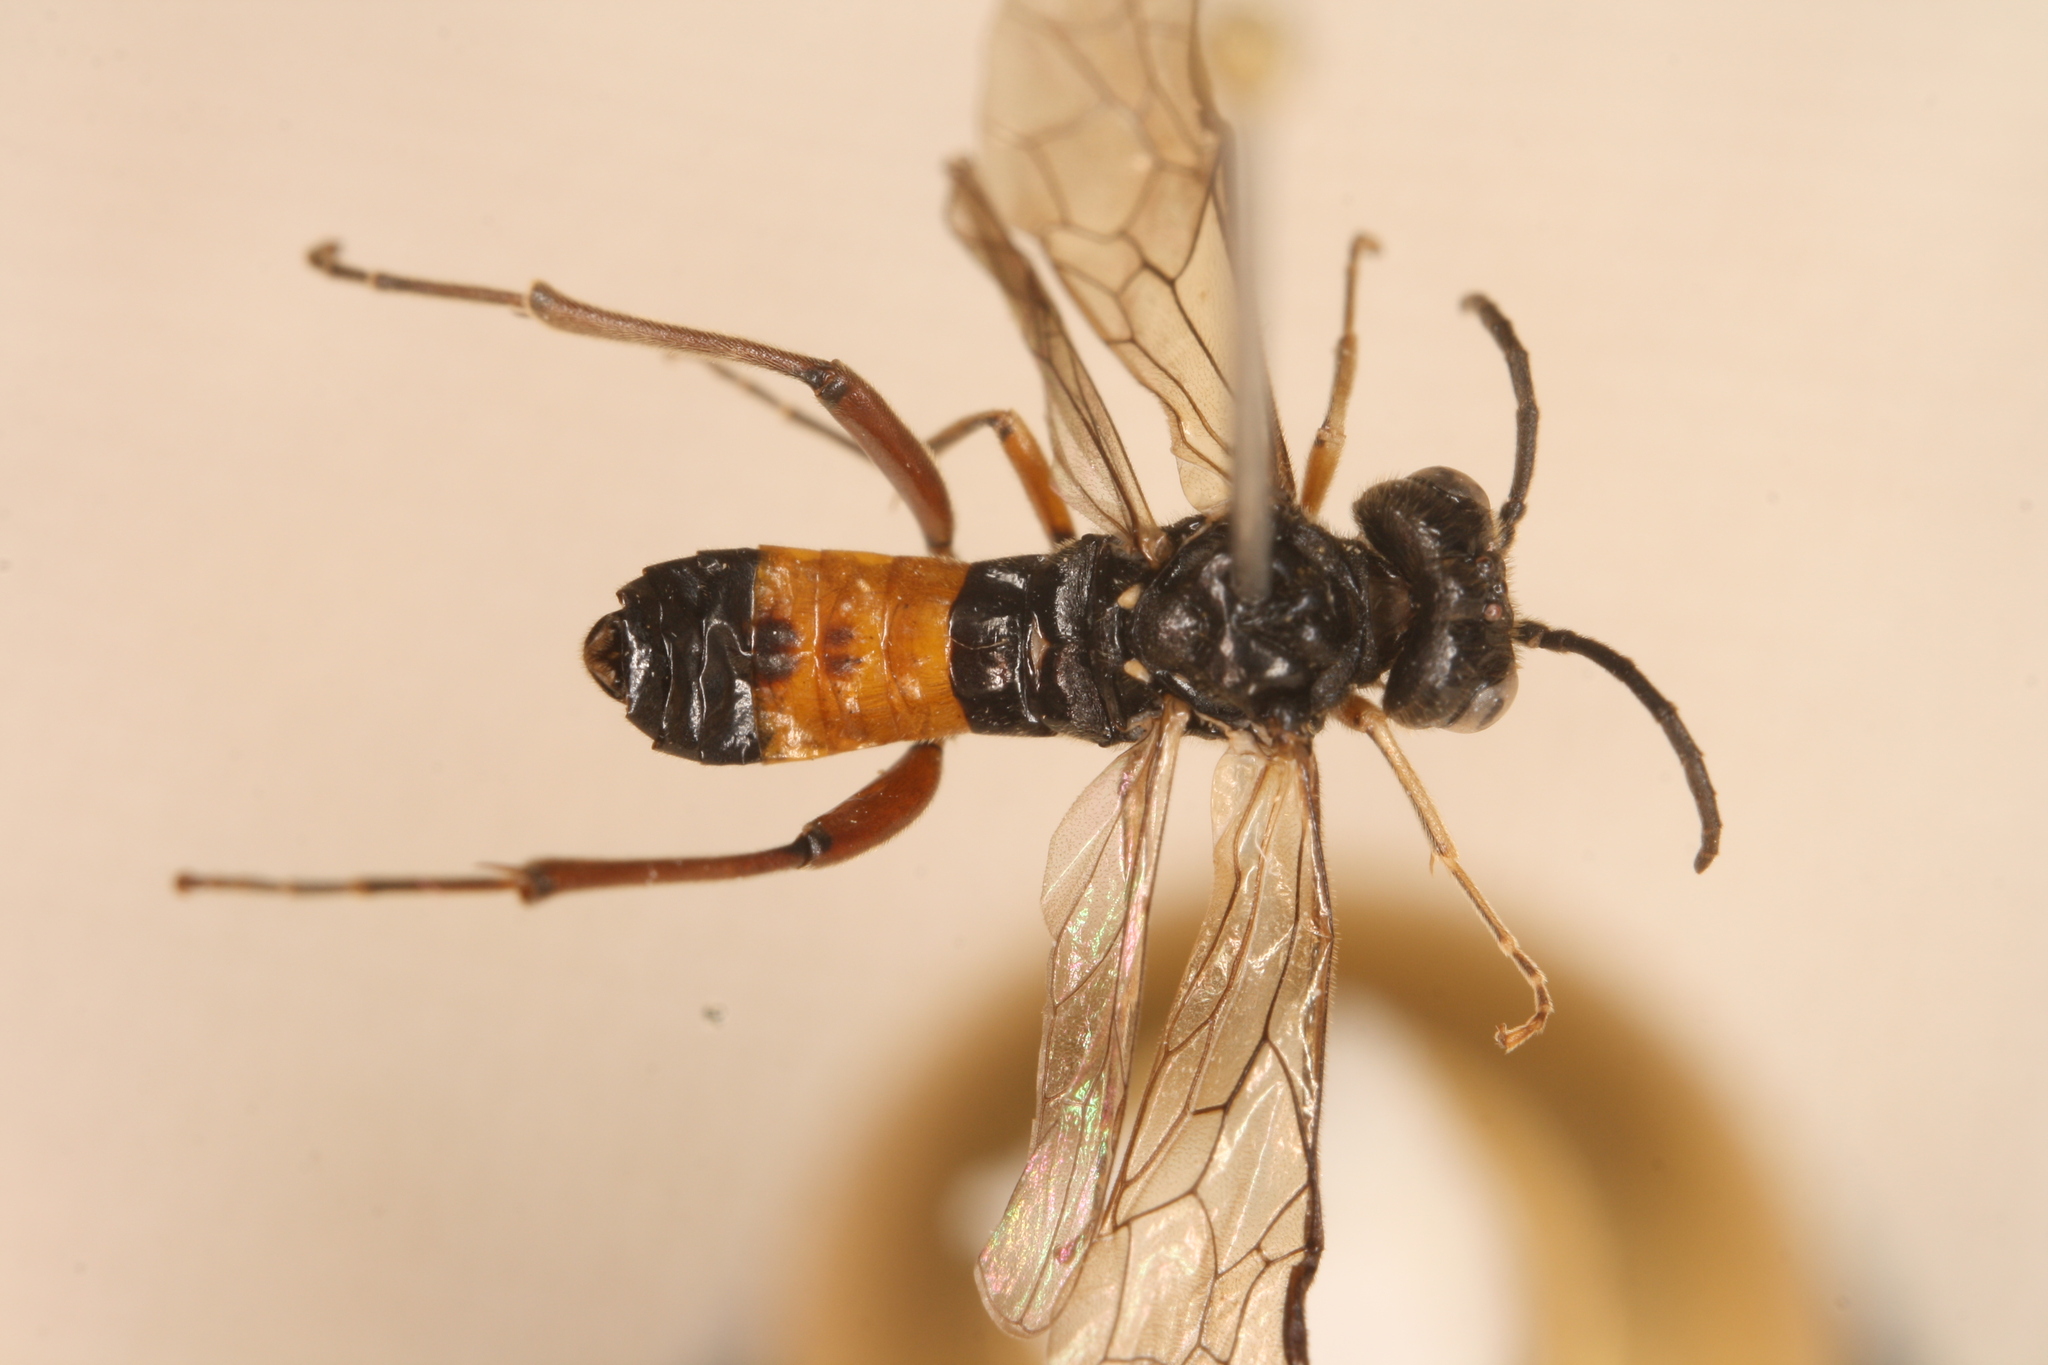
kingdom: Animalia
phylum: Arthropoda
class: Insecta
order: Hymenoptera
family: Tenthredinidae
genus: Taxonus
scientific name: Taxonus agrorum
